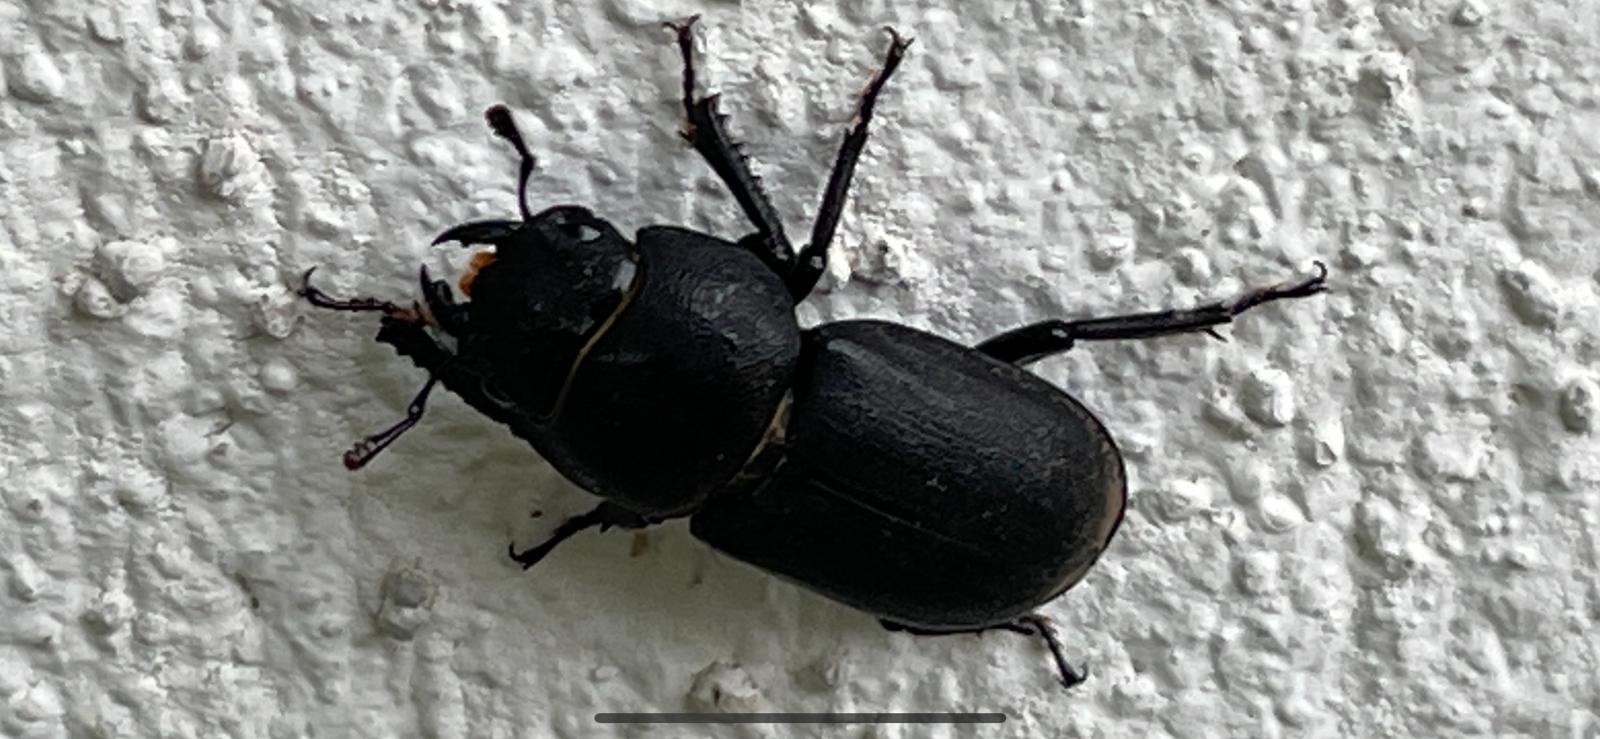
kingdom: Animalia
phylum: Arthropoda
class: Insecta
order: Coleoptera
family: Lucanidae
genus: Dorcus
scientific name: Dorcus parallelipipedus
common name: Lesser stag beetle
